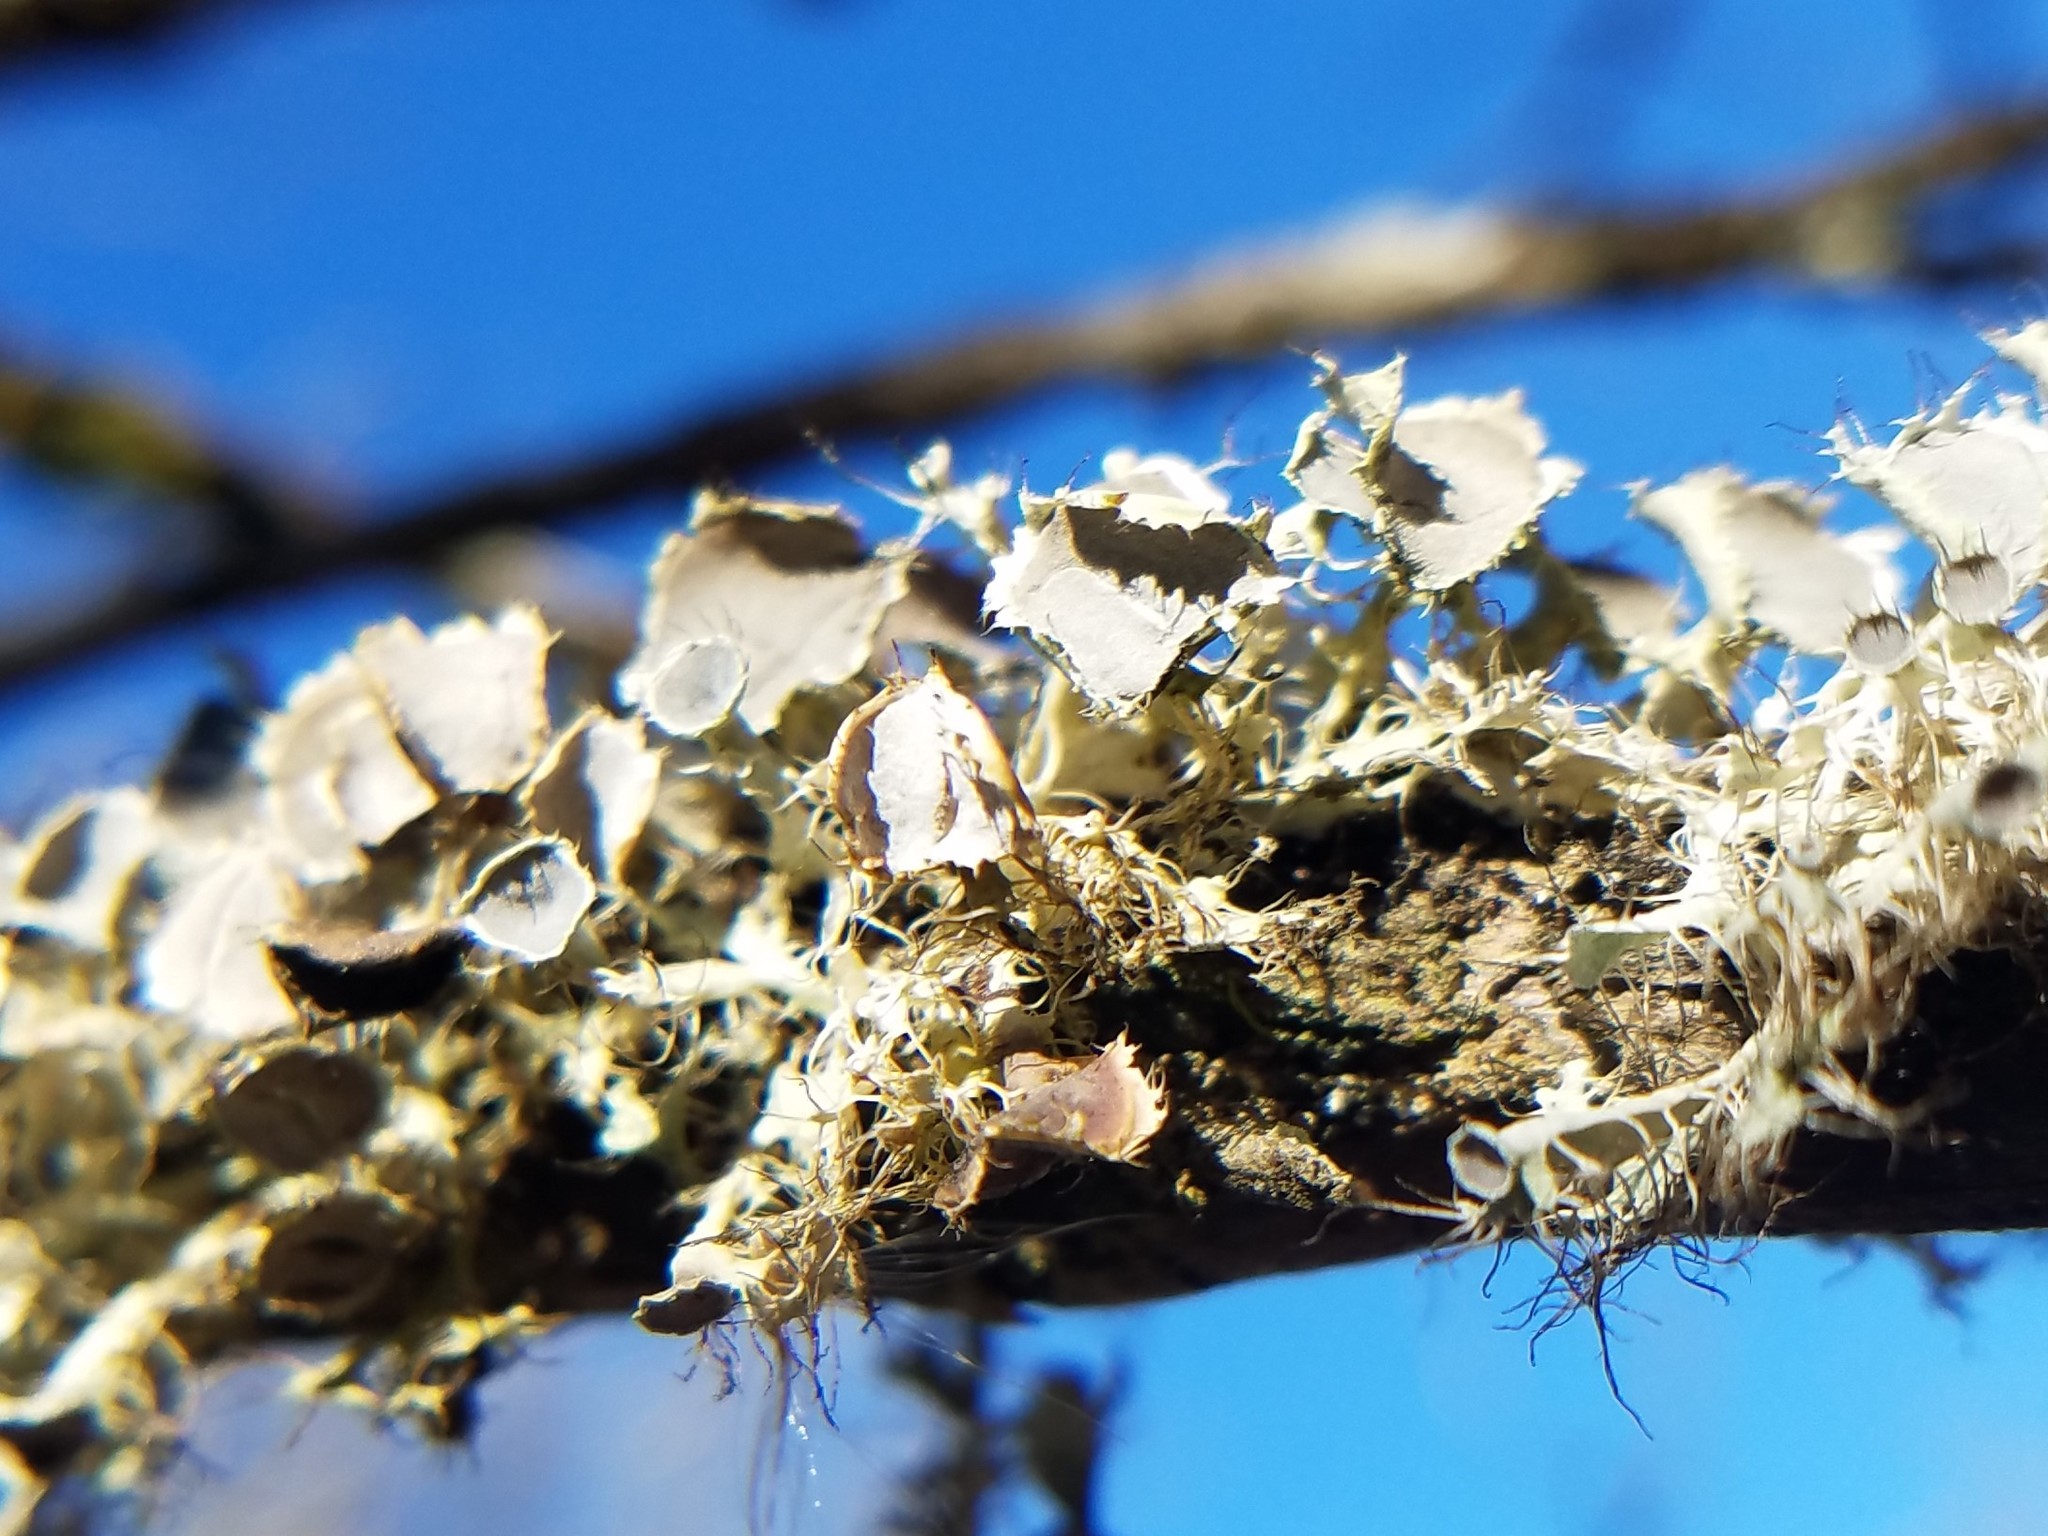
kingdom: Fungi
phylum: Ascomycota
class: Lecanoromycetes
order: Caliciales
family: Physciaceae
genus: Heterodermia
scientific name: Heterodermia echinata
